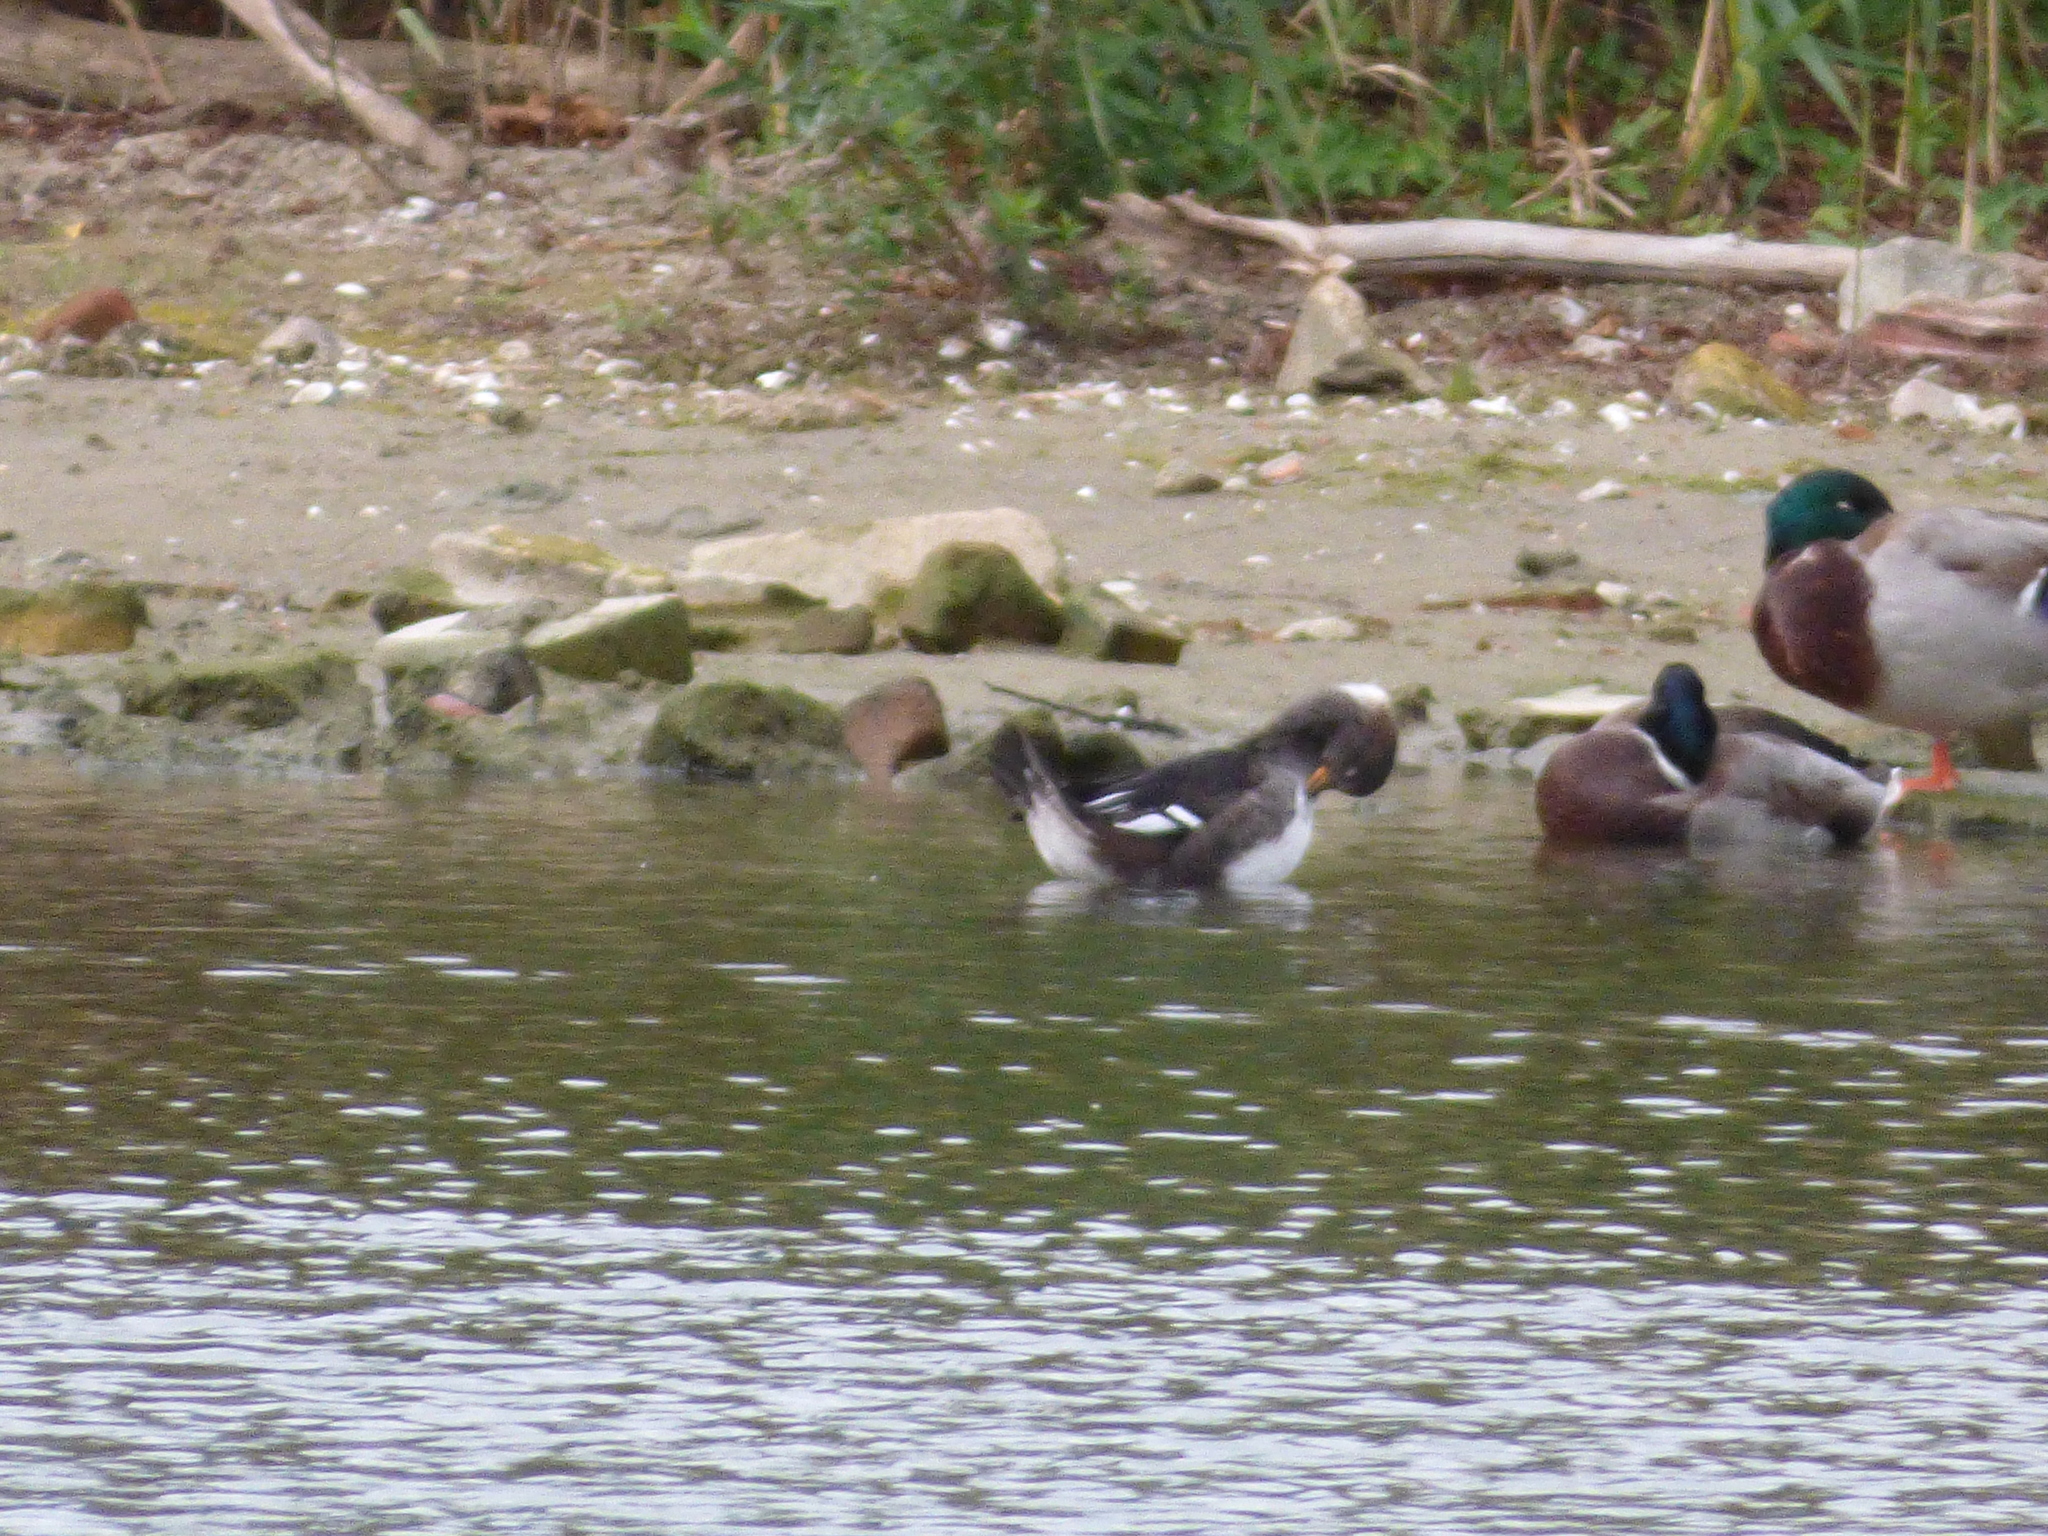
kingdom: Animalia
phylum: Chordata
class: Aves
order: Anseriformes
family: Anatidae
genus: Lophodytes
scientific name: Lophodytes cucullatus
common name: Hooded merganser
